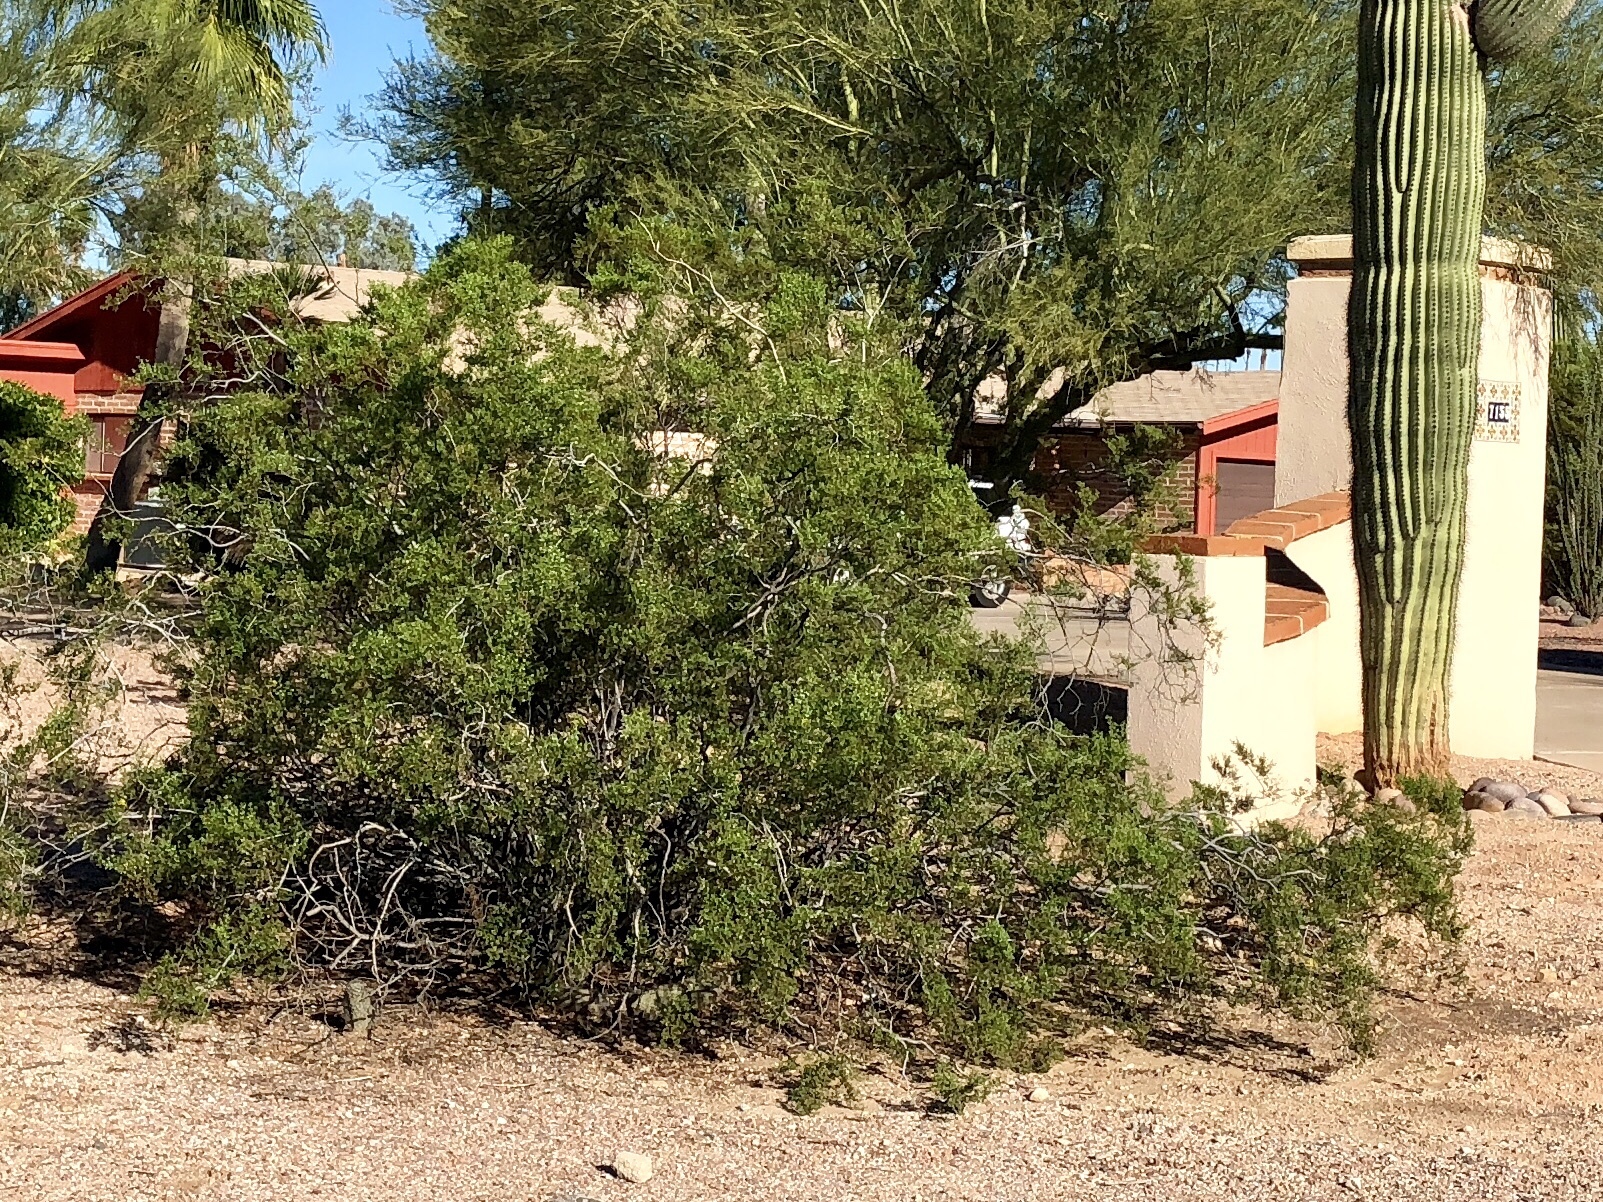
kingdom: Plantae
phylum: Tracheophyta
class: Magnoliopsida
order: Zygophyllales
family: Zygophyllaceae
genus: Larrea
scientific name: Larrea tridentata
